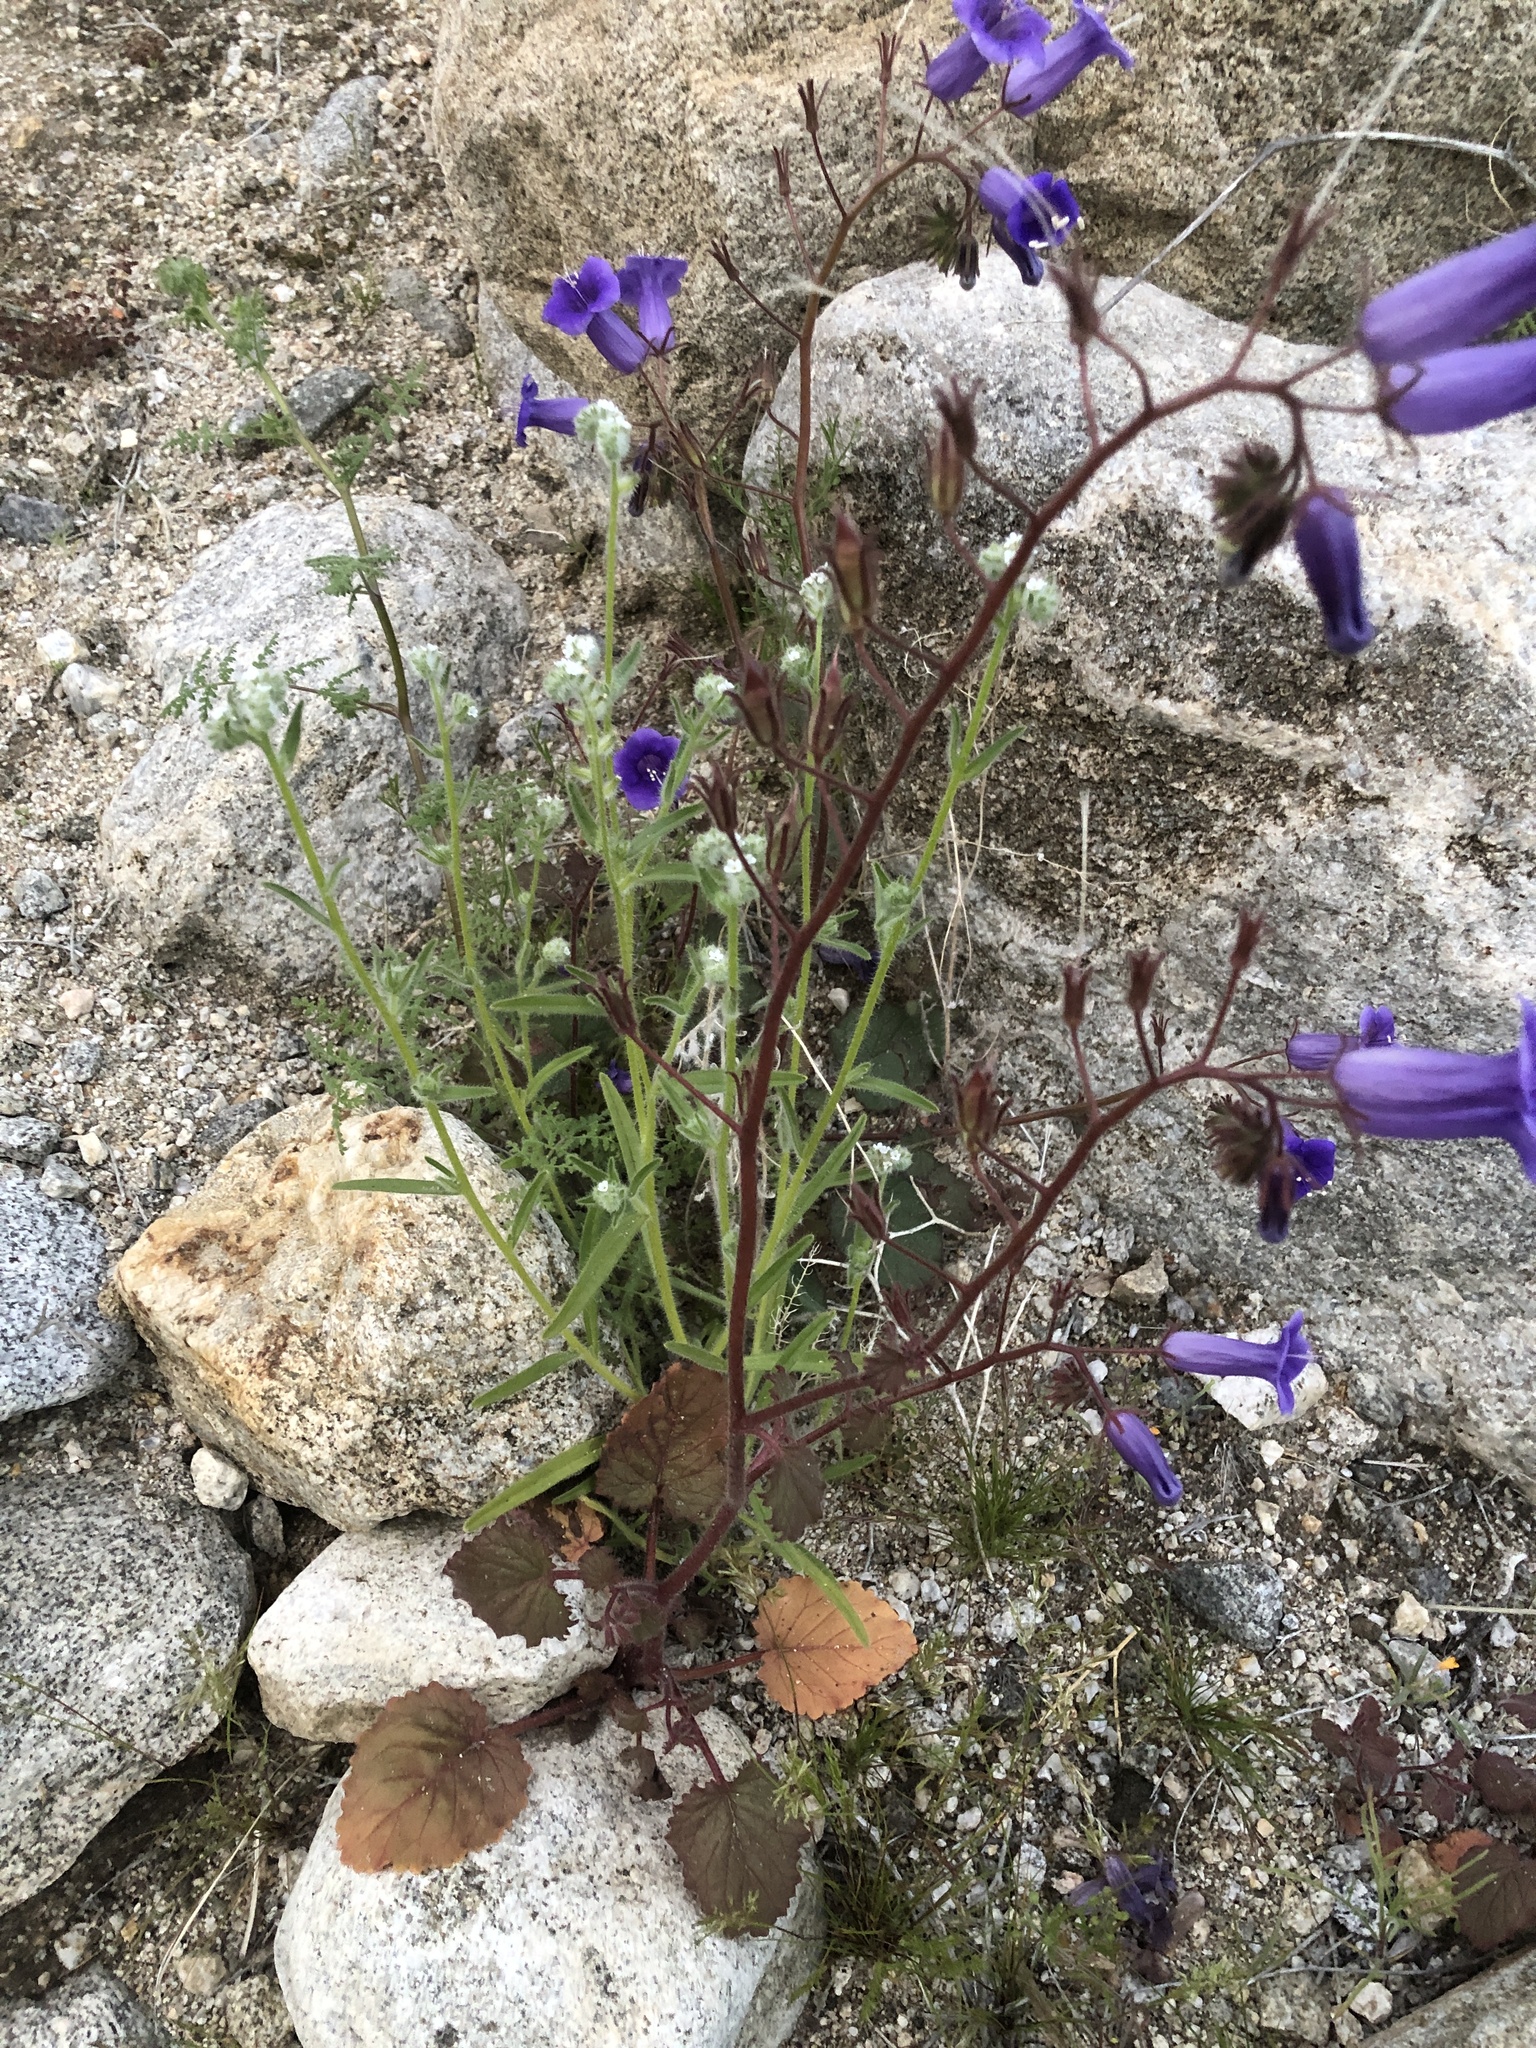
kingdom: Plantae
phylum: Tracheophyta
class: Magnoliopsida
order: Boraginales
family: Hydrophyllaceae
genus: Phacelia
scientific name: Phacelia minor
